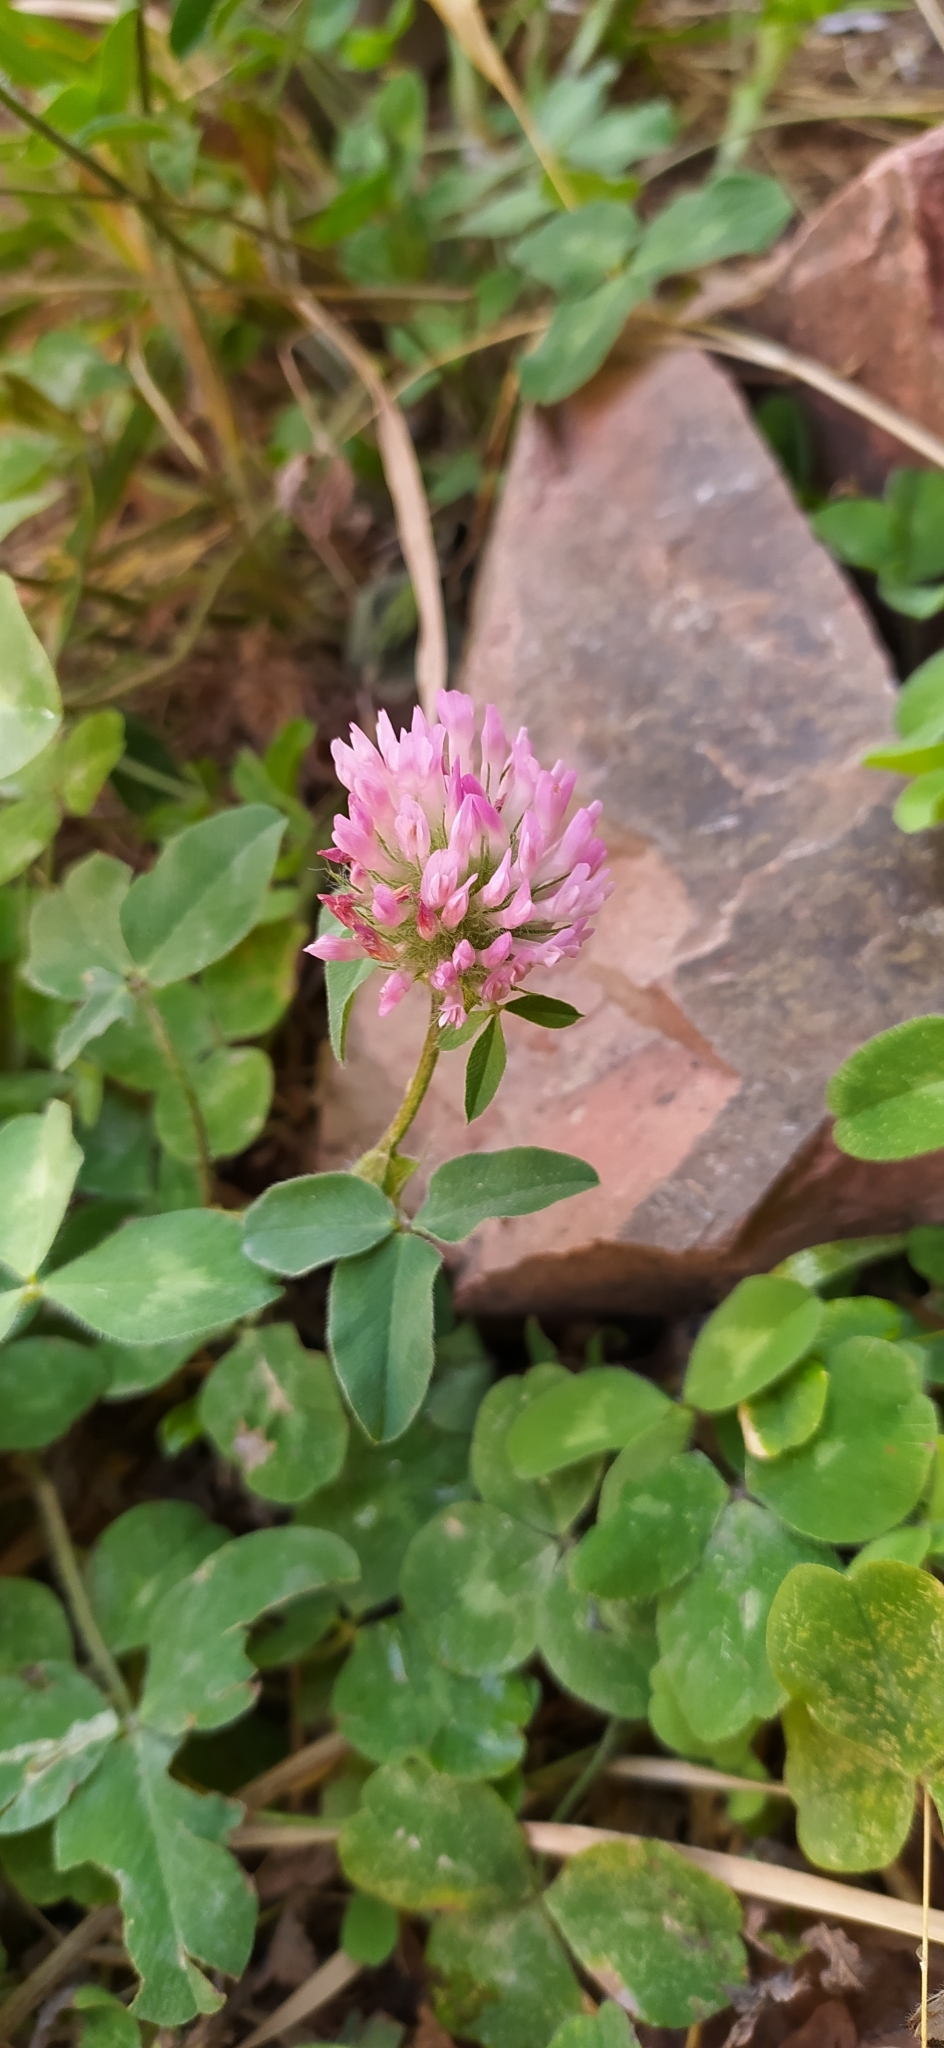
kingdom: Plantae
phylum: Tracheophyta
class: Magnoliopsida
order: Fabales
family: Fabaceae
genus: Trifolium
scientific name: Trifolium pratense
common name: Red clover
